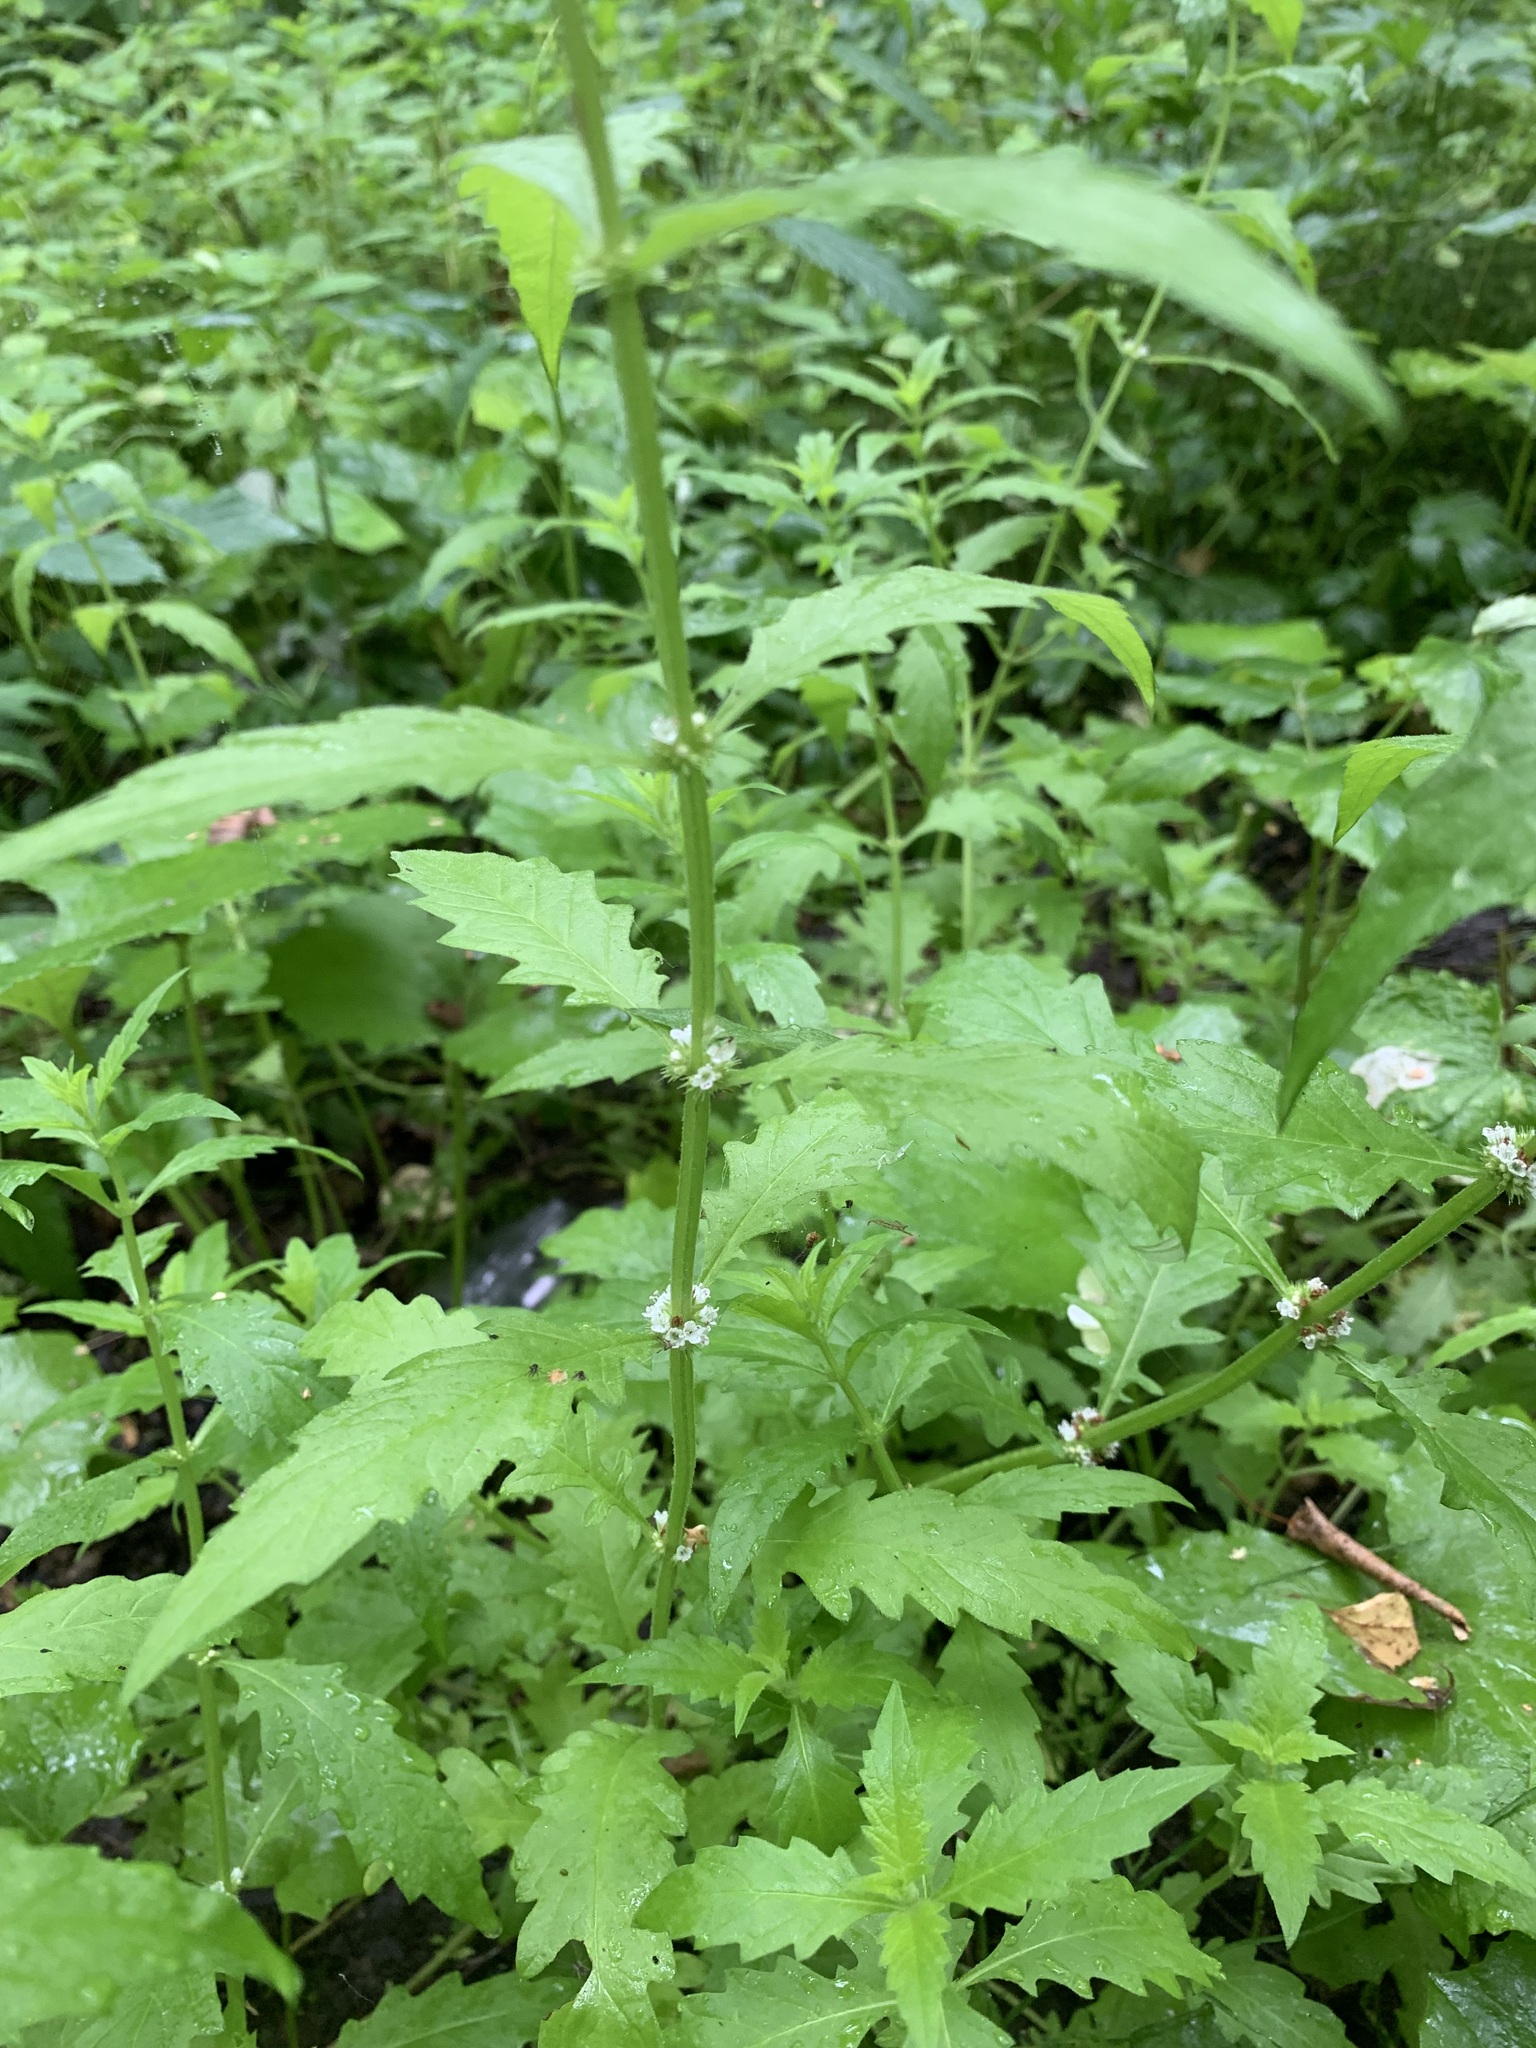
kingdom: Plantae
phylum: Tracheophyta
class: Magnoliopsida
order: Lamiales
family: Lamiaceae
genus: Lycopus
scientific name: Lycopus europaeus
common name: European bugleweed
